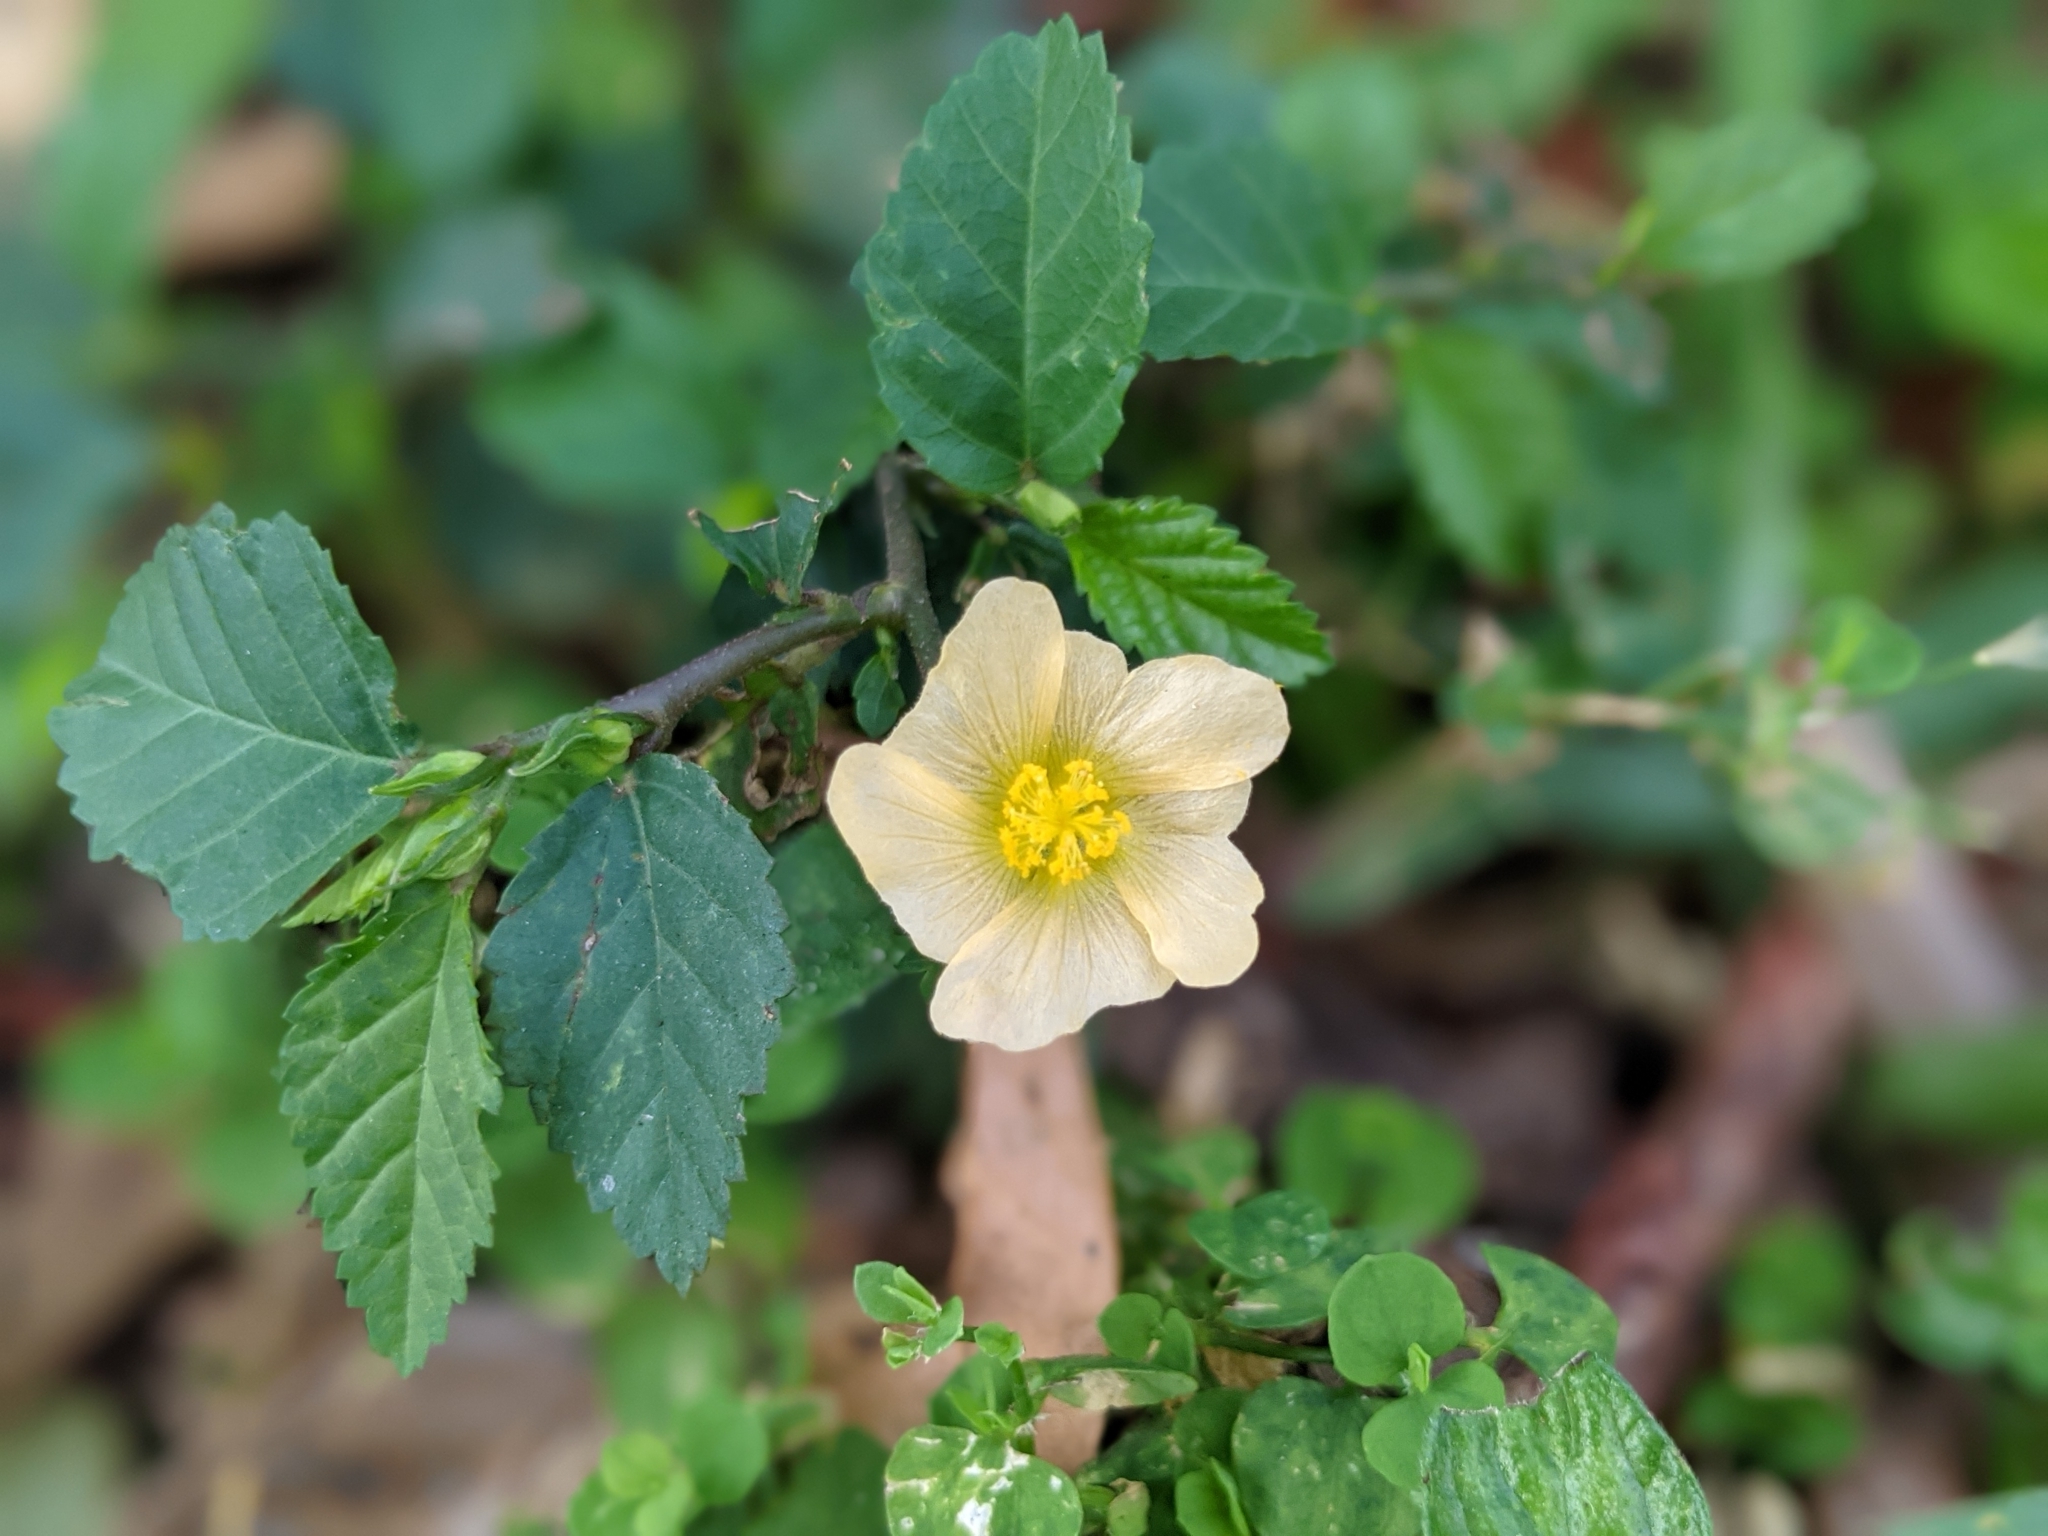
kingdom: Plantae
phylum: Tracheophyta
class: Magnoliopsida
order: Malvales
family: Malvaceae
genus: Sida
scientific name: Sida ulmifolia
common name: Broom weed
